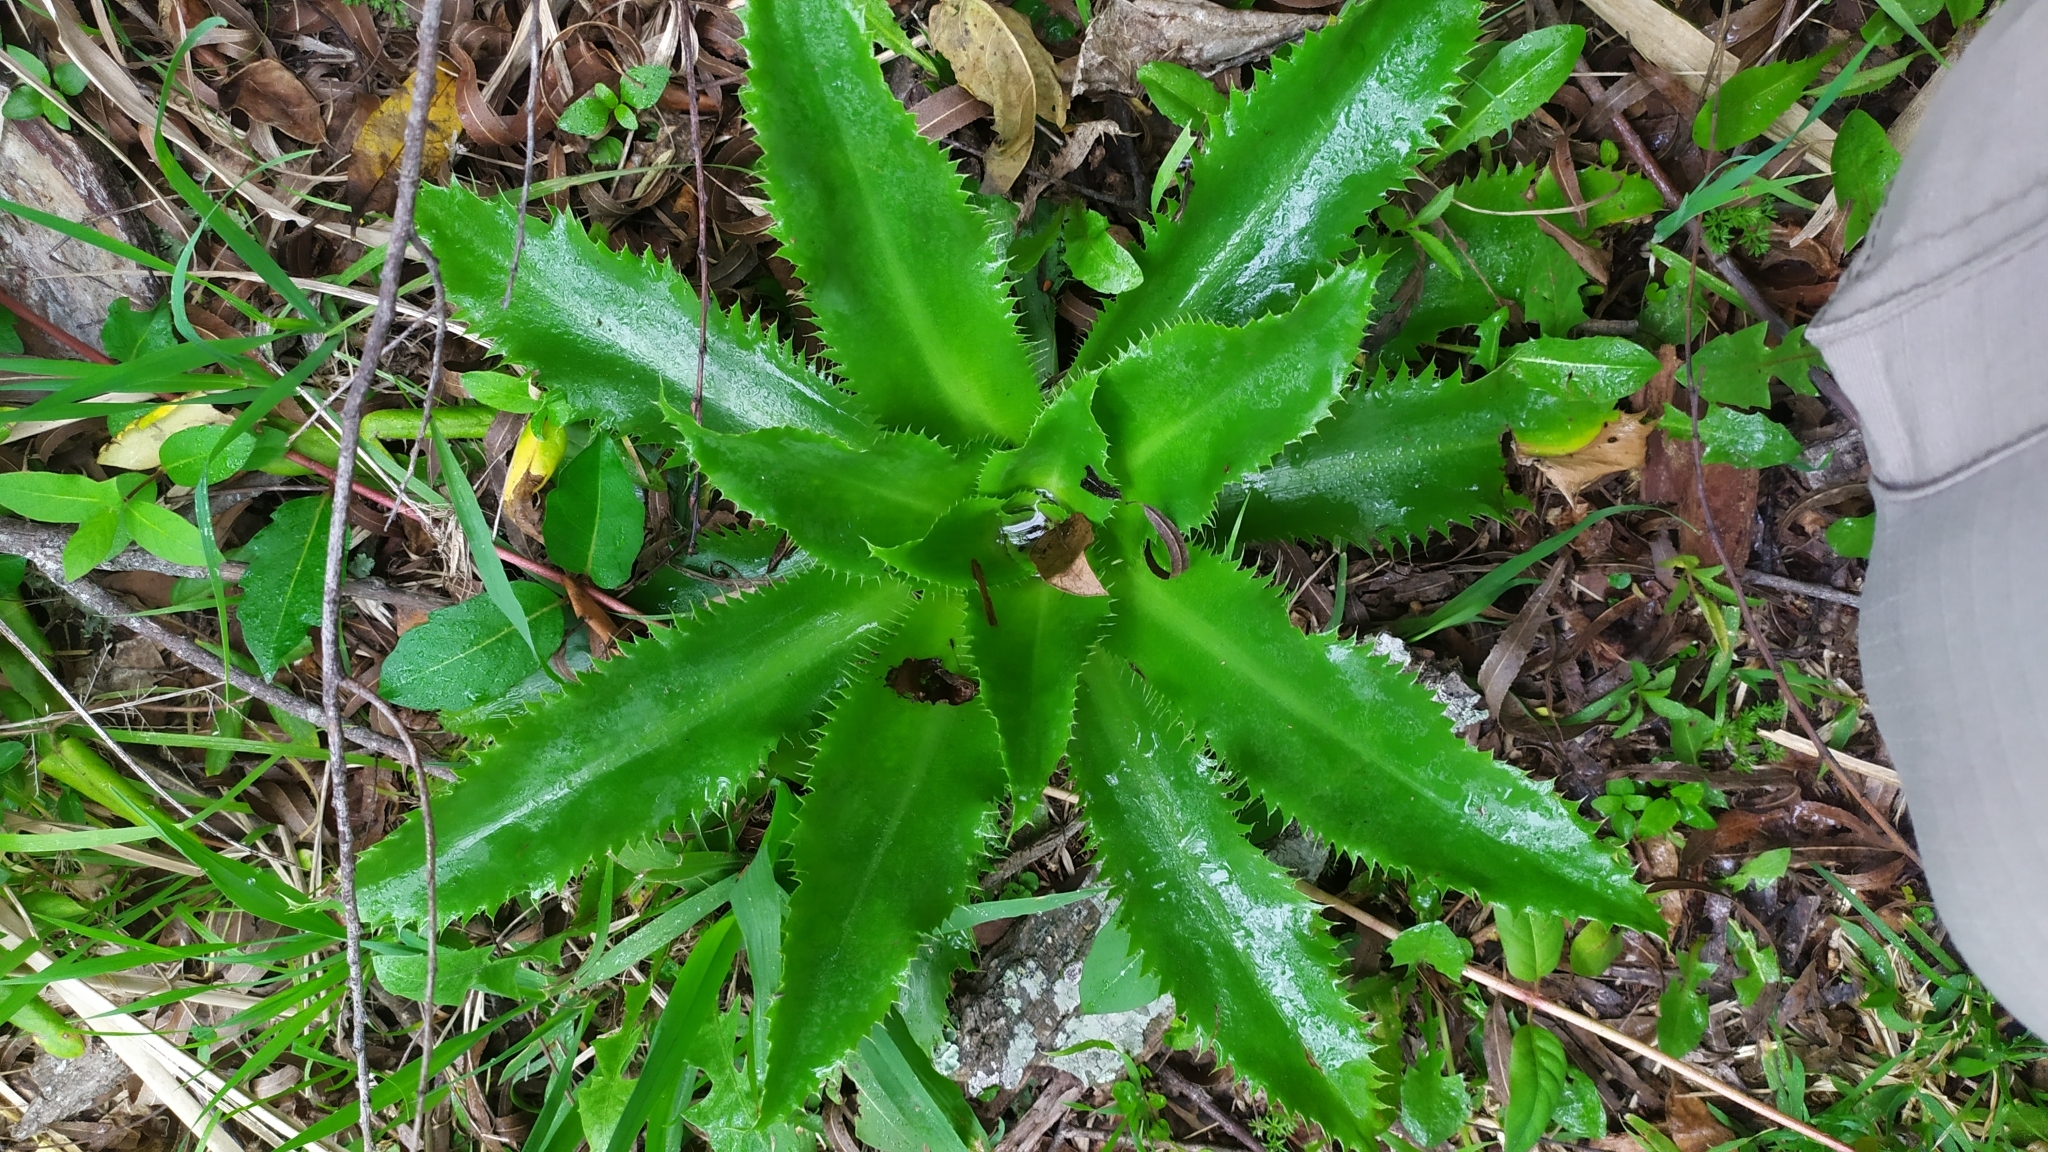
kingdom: Plantae
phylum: Tracheophyta
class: Magnoliopsida
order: Apiales
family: Apiaceae
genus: Eryngium
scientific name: Eryngium serra
